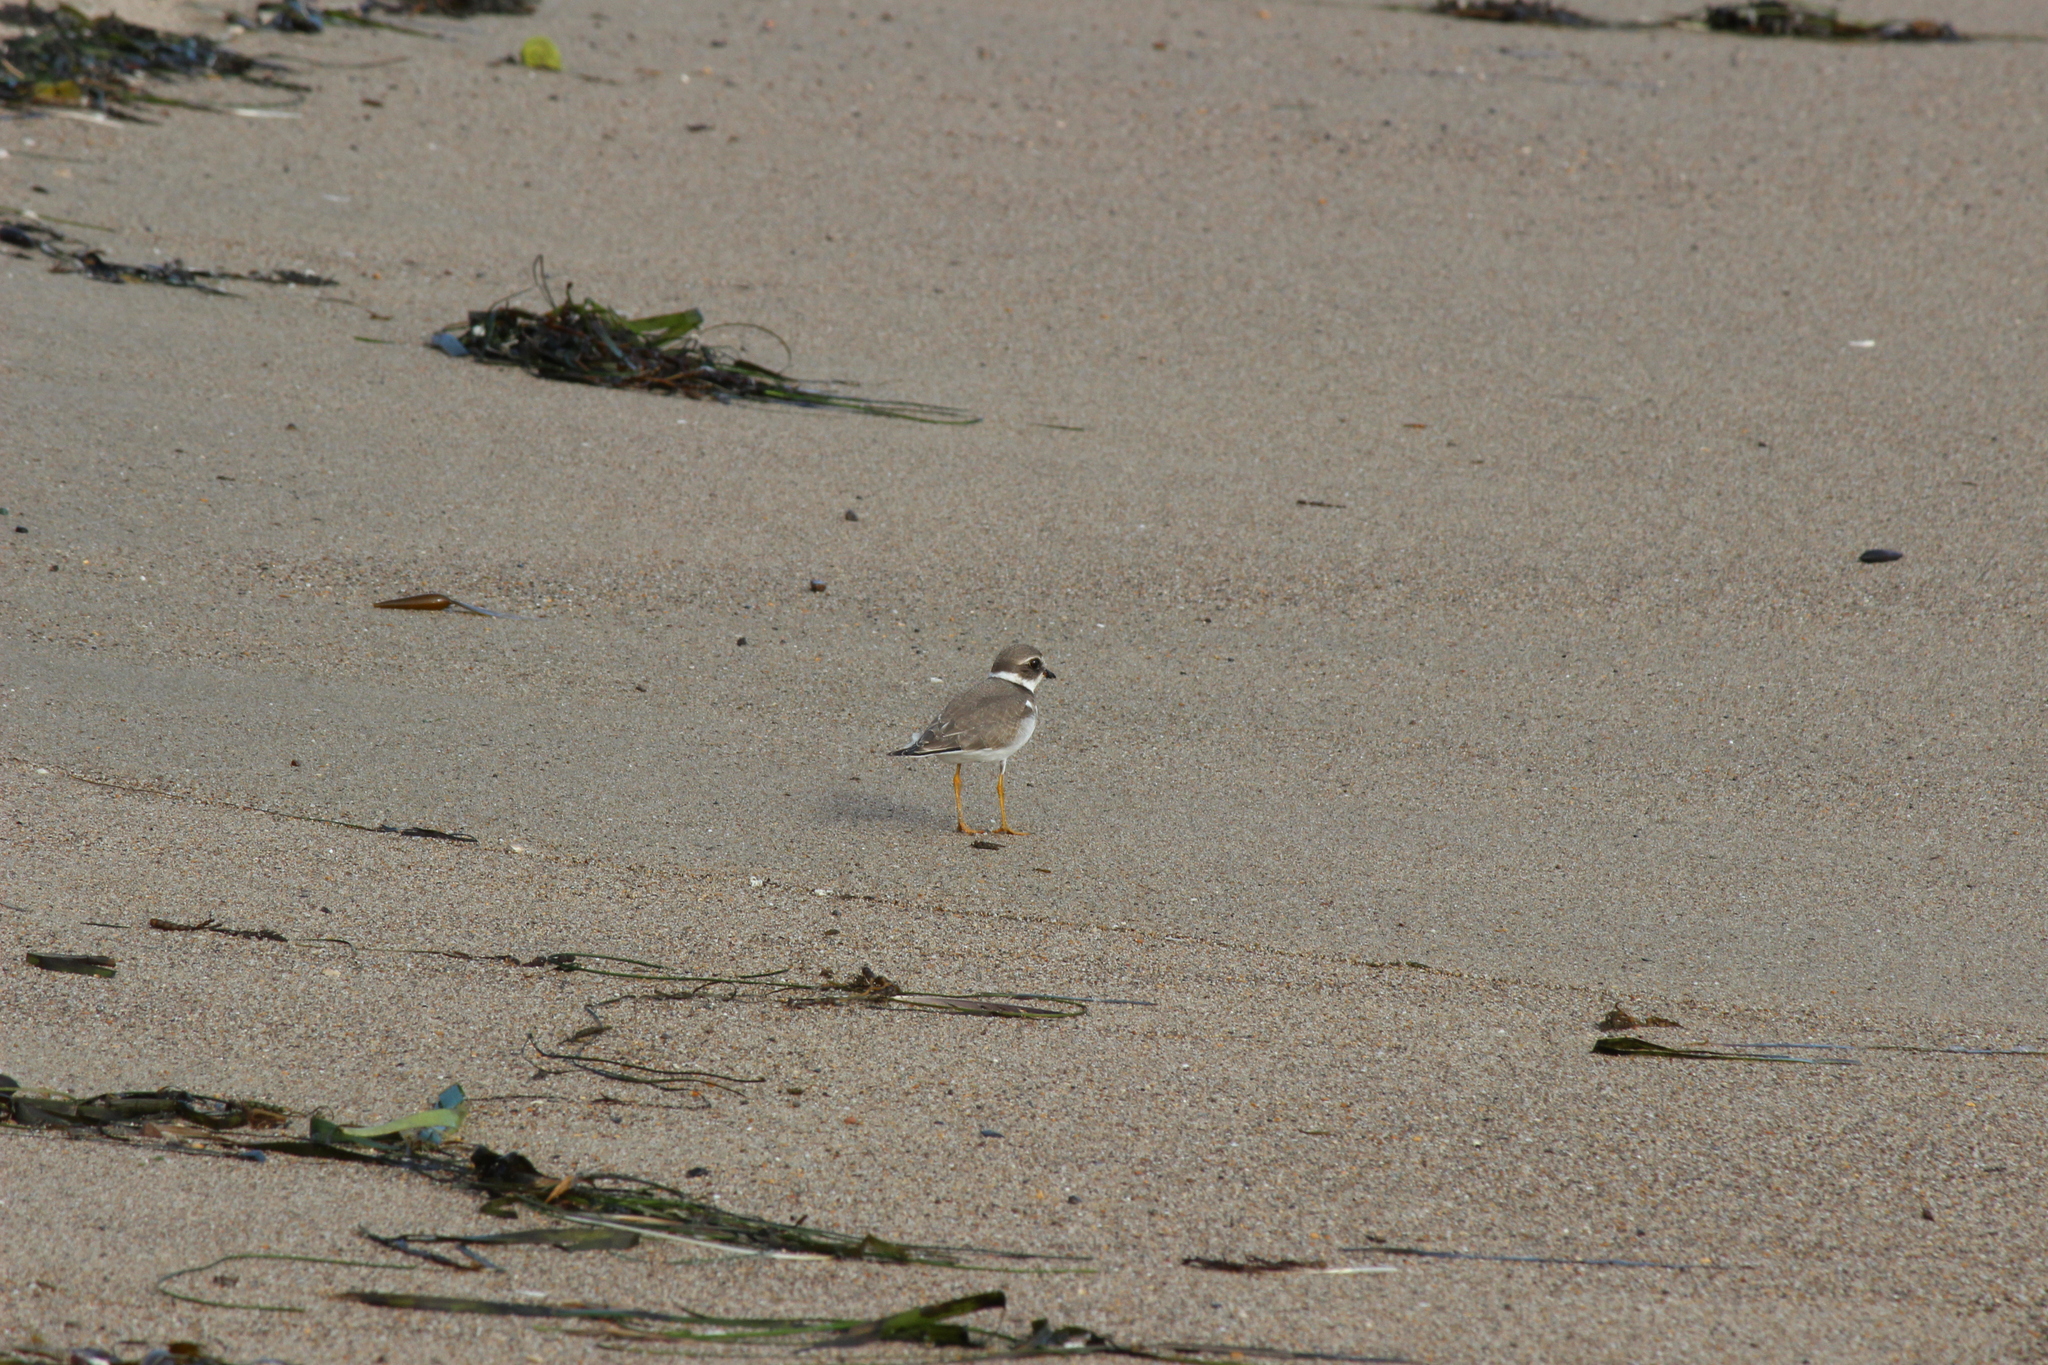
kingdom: Animalia
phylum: Chordata
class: Aves
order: Charadriiformes
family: Charadriidae
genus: Charadrius
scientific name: Charadrius semipalmatus
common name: Semipalmated plover
